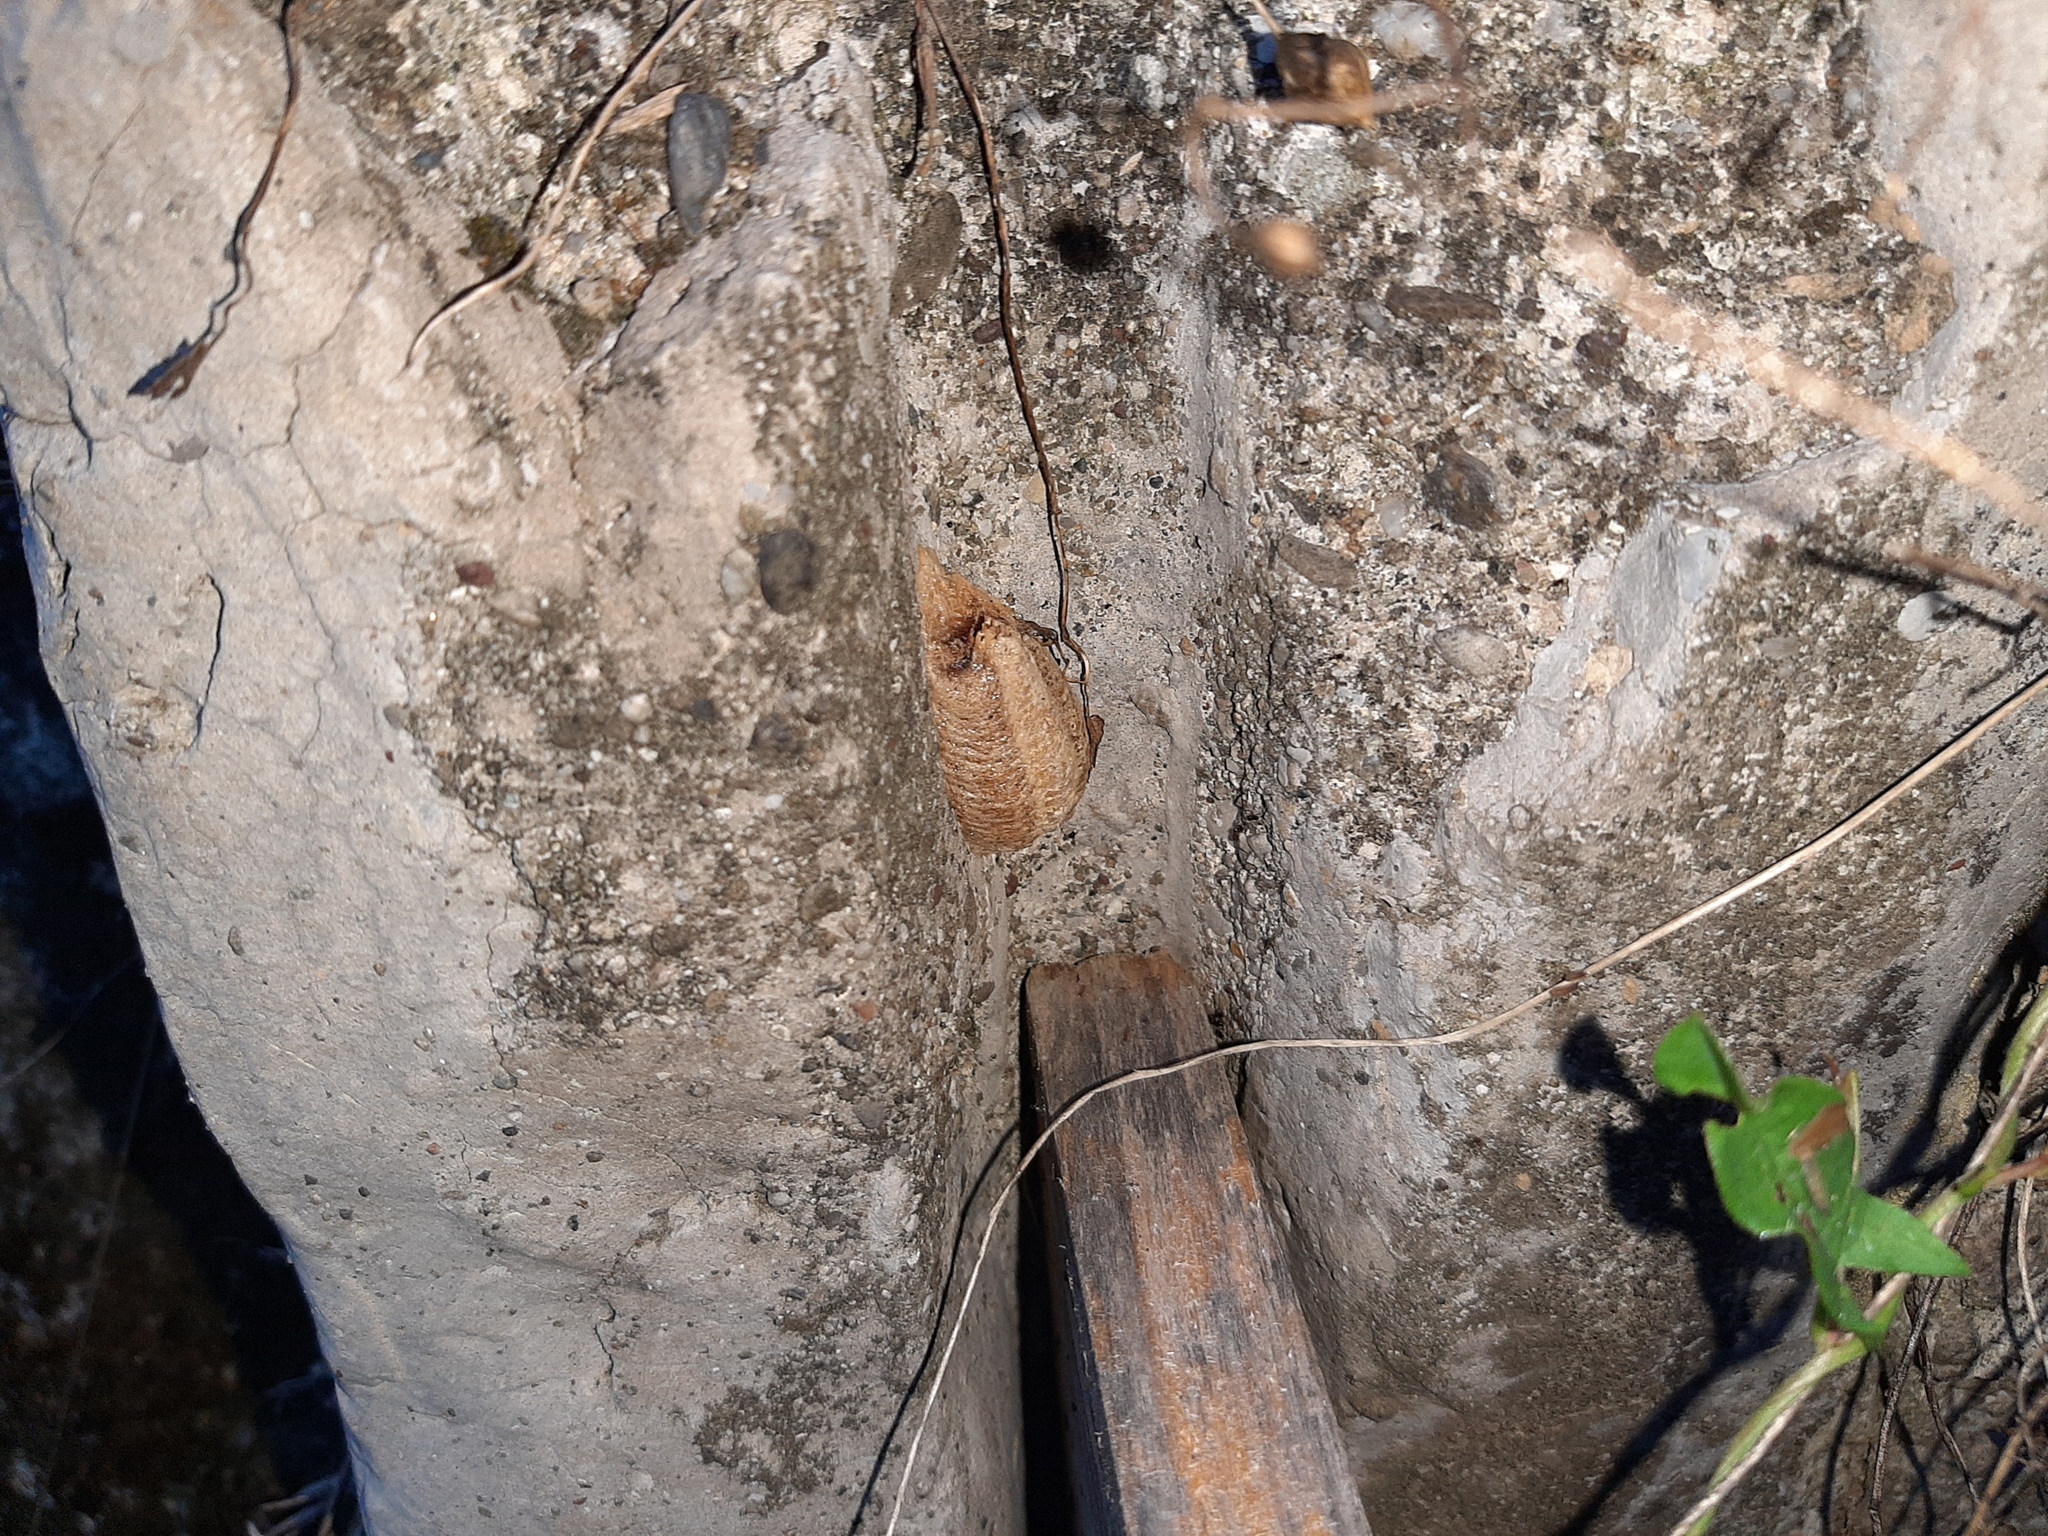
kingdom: Animalia
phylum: Arthropoda
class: Insecta
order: Mantodea
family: Mantidae
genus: Mantis
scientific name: Mantis religiosa
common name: Praying mantis
